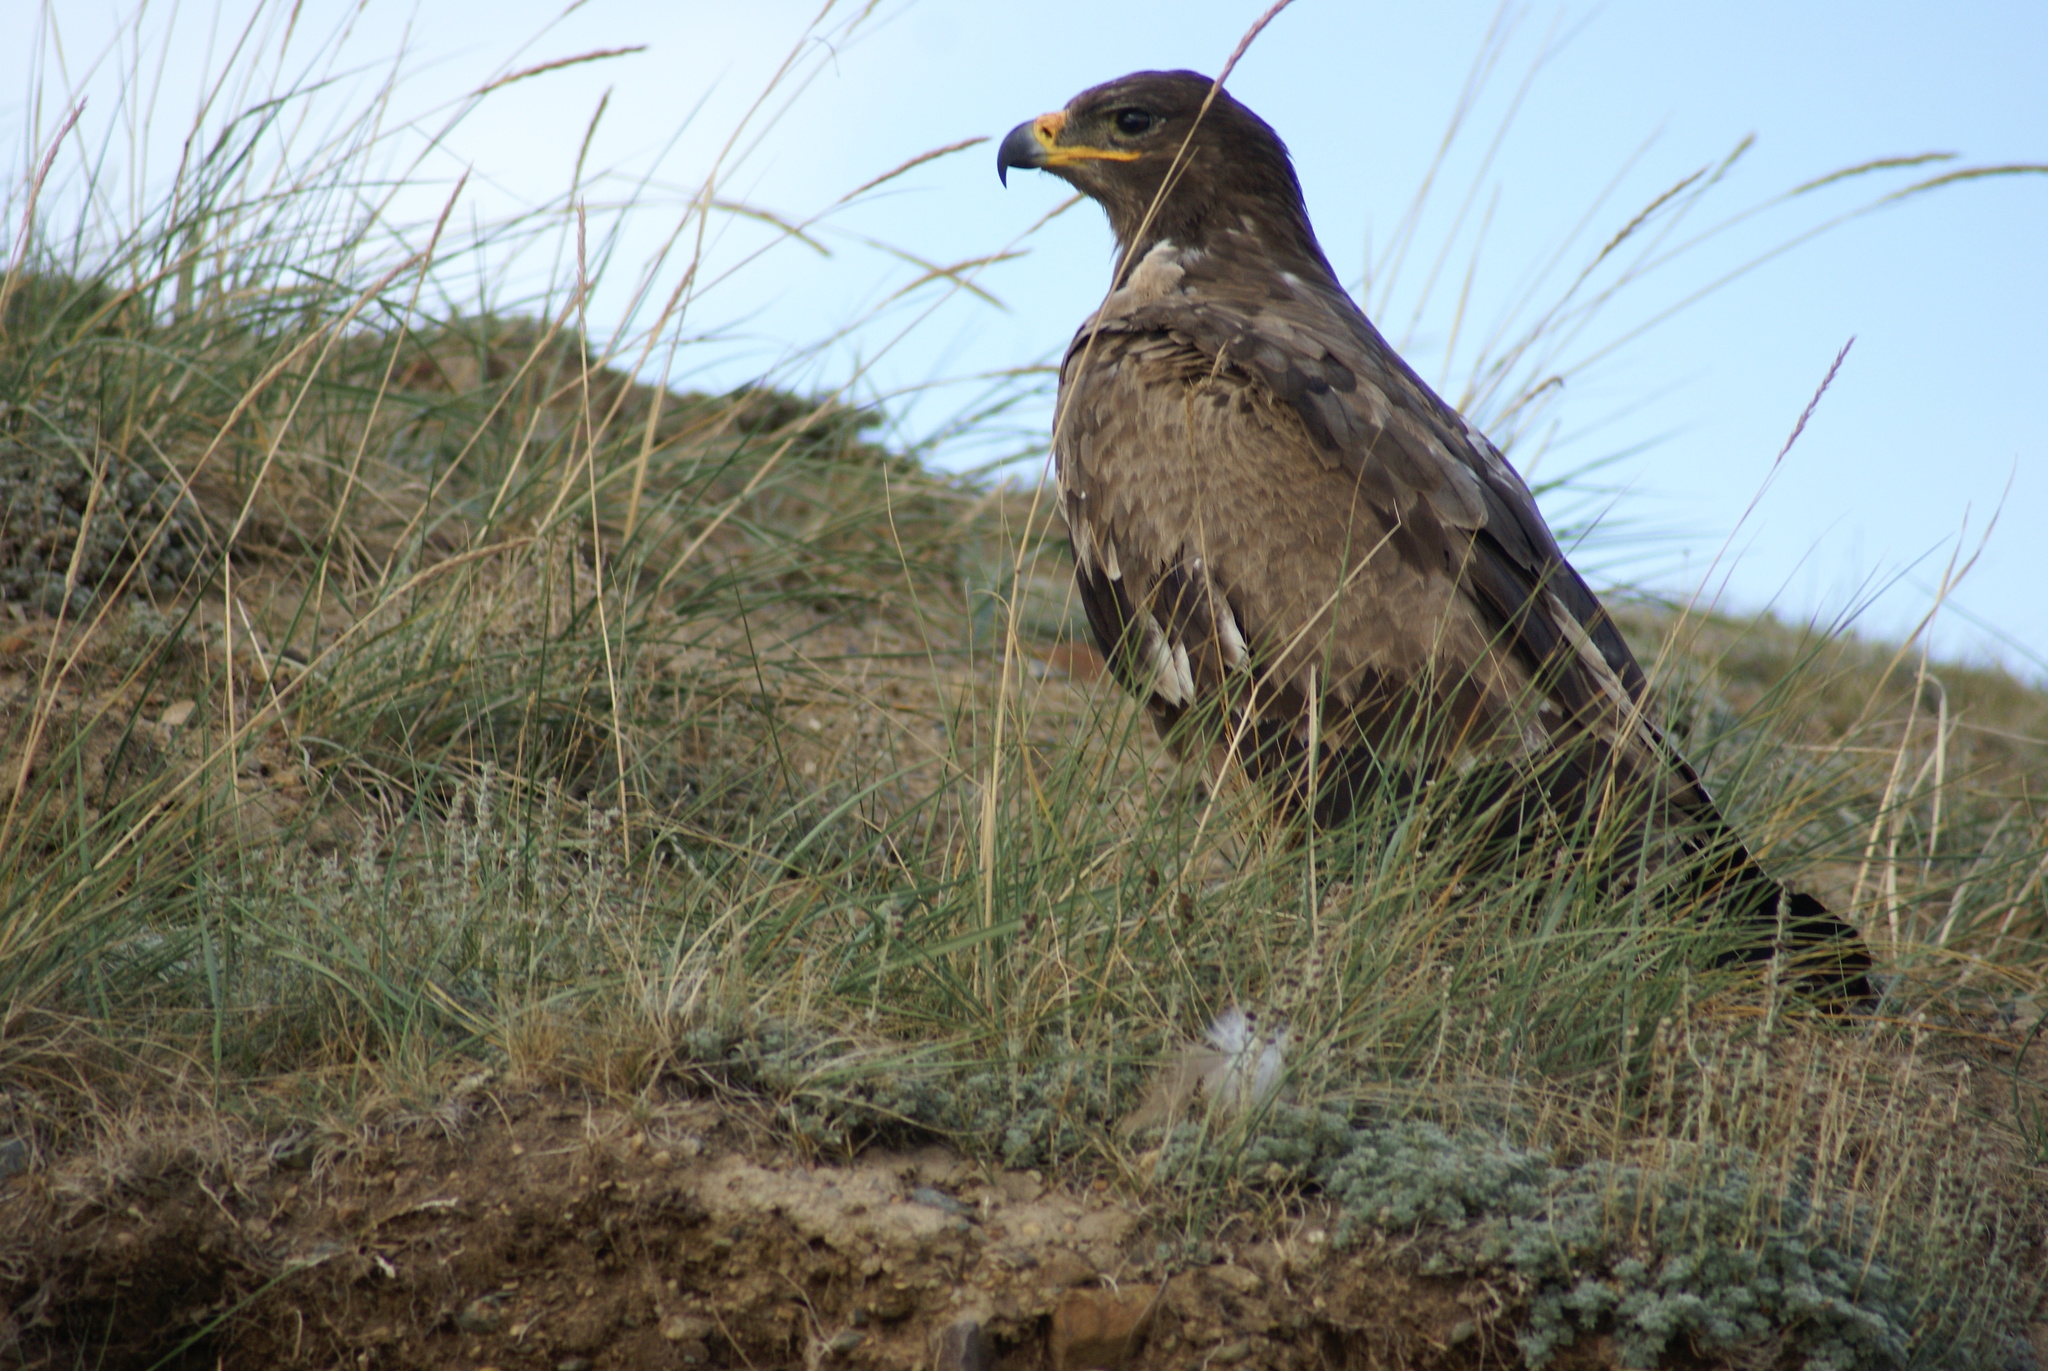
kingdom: Animalia
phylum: Chordata
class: Aves
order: Accipitriformes
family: Accipitridae
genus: Aquila
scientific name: Aquila nipalensis
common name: Steppe eagle
